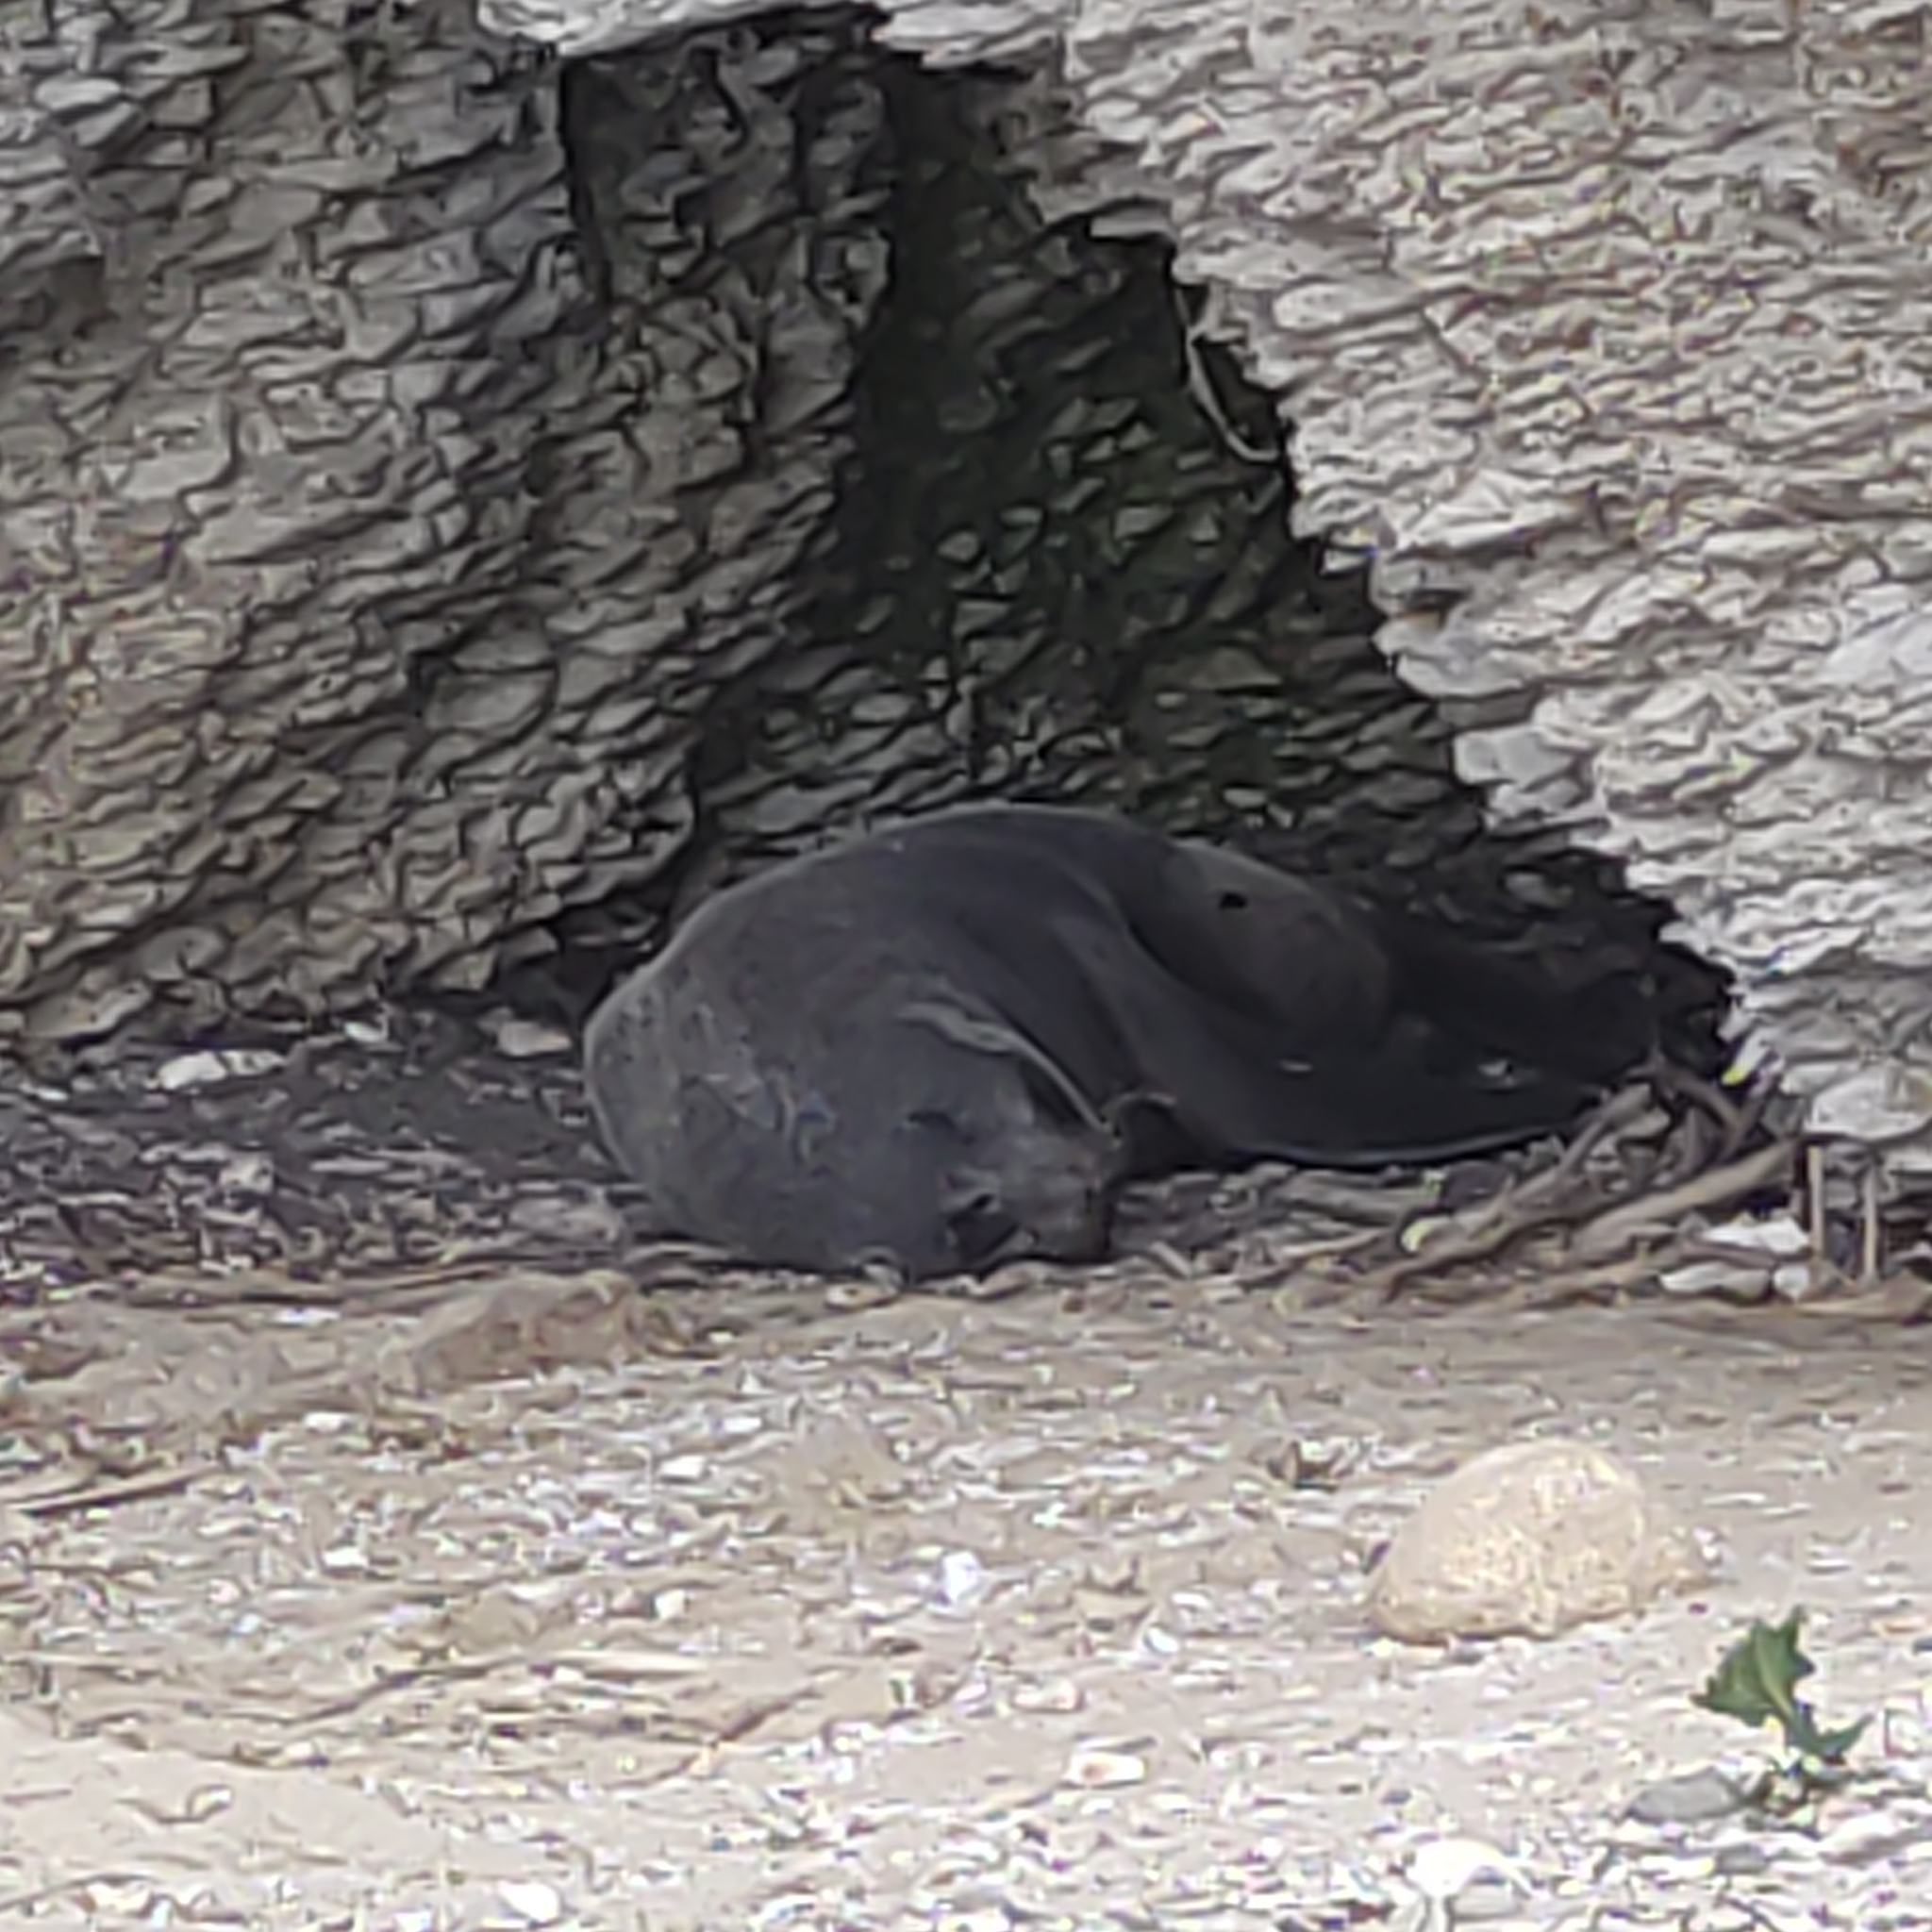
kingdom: Animalia
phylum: Chordata
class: Mammalia
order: Carnivora
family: Otariidae
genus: Arctocephalus
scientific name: Arctocephalus forsteri
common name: New zealand fur seal
